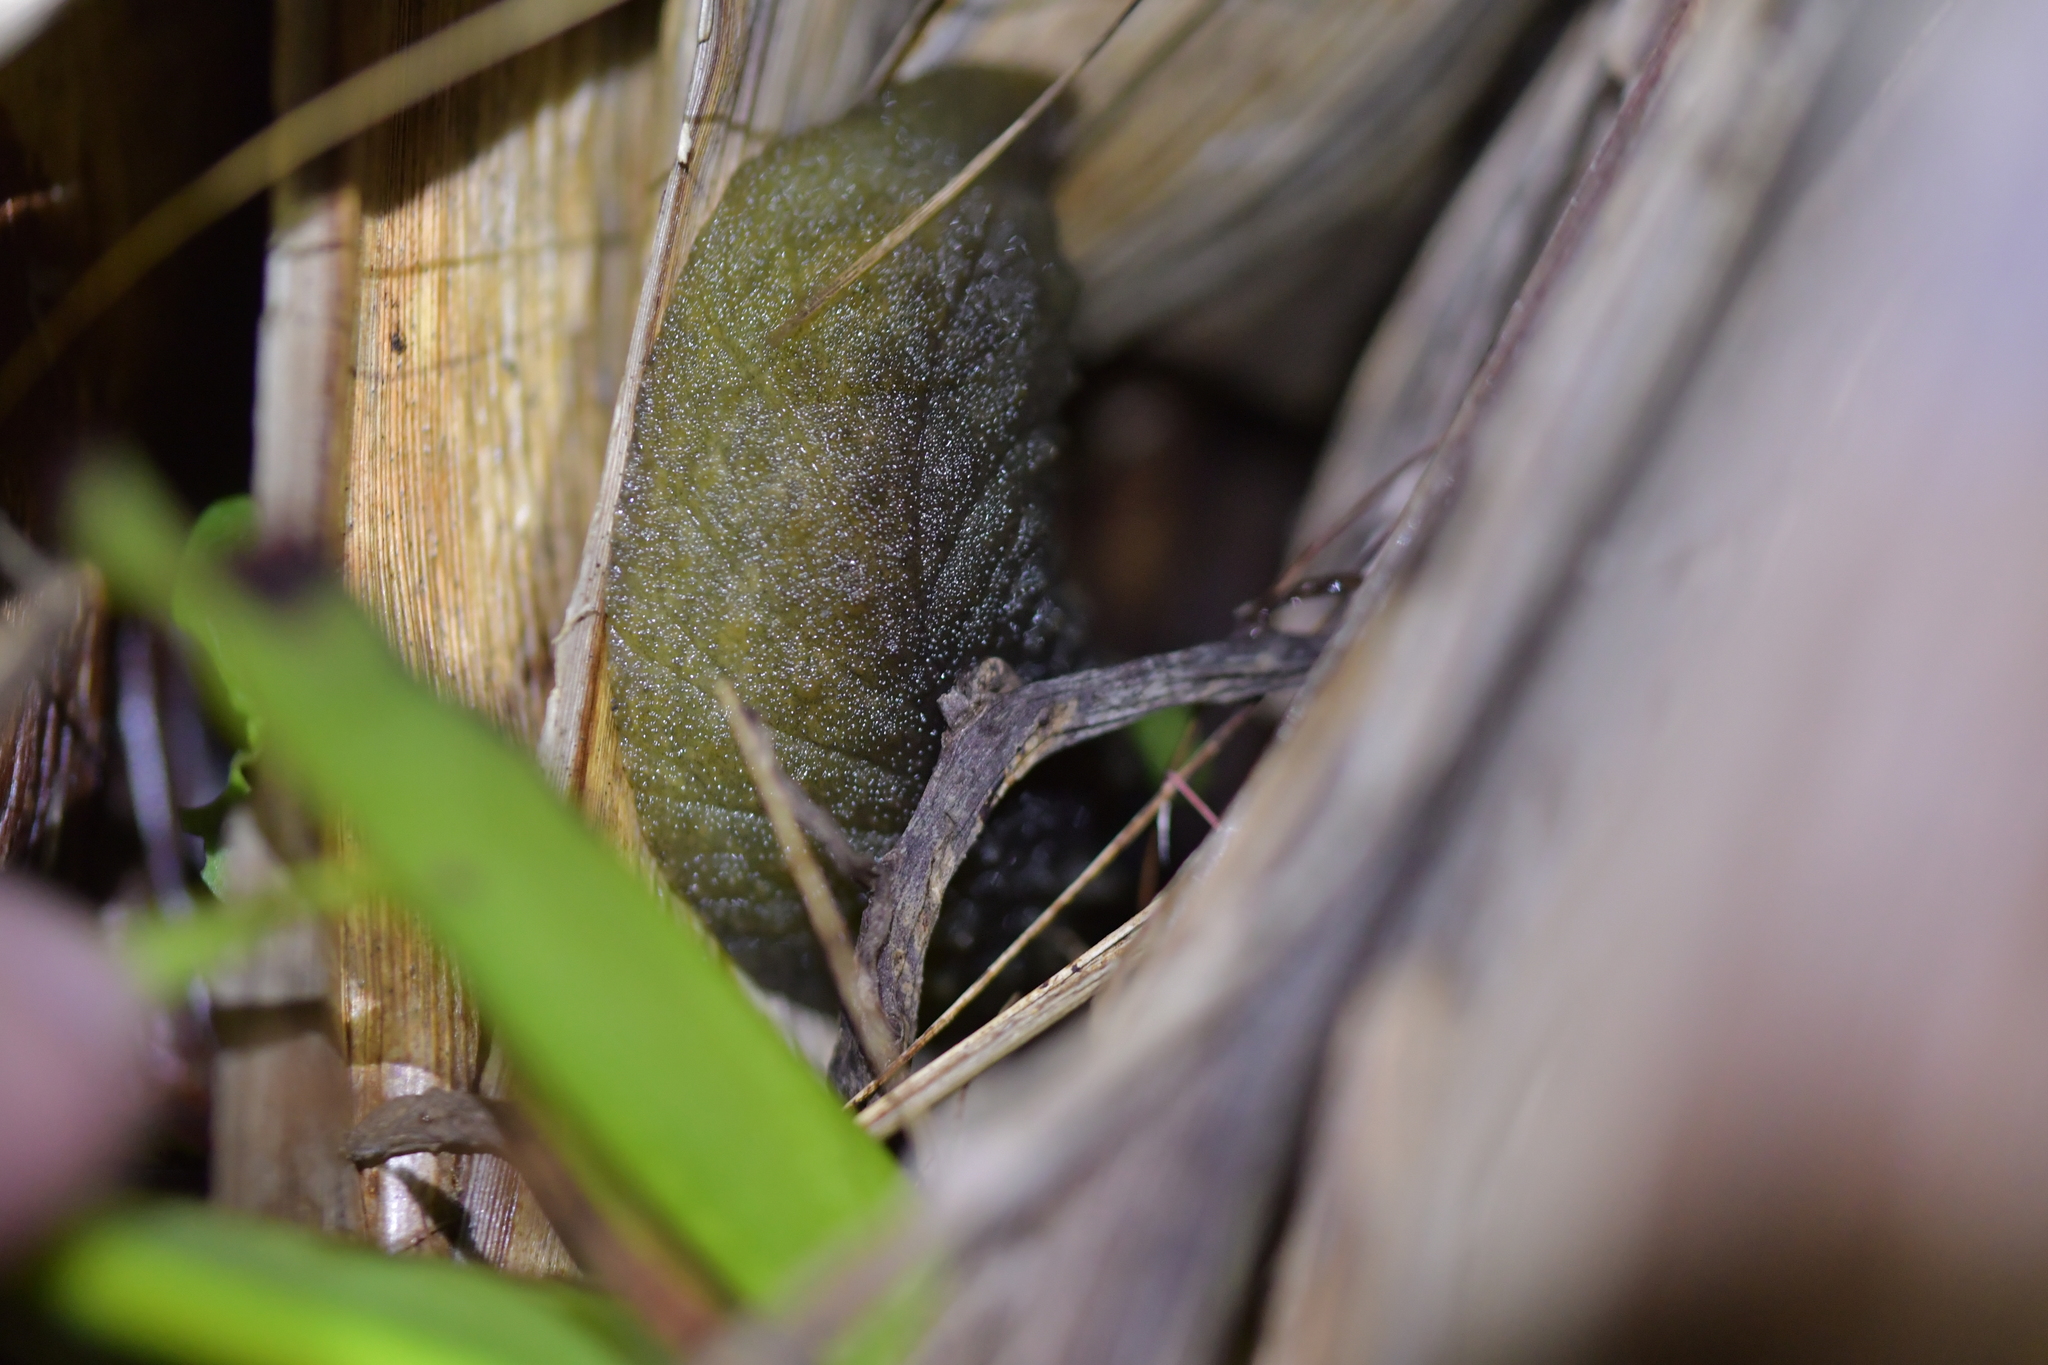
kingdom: Animalia
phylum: Mollusca
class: Gastropoda
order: Stylommatophora
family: Athoracophoridae
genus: Athoracophorus
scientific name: Athoracophorus papillatus
